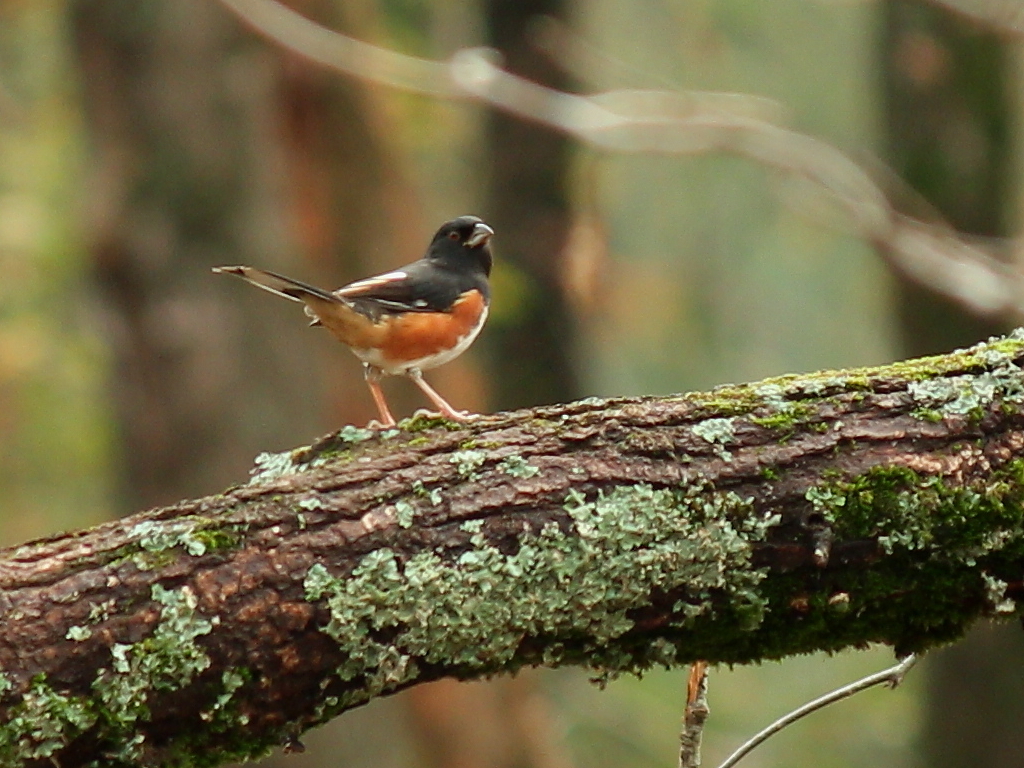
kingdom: Animalia
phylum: Chordata
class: Aves
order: Passeriformes
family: Passerellidae
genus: Pipilo
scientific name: Pipilo erythrophthalmus
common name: Eastern towhee
